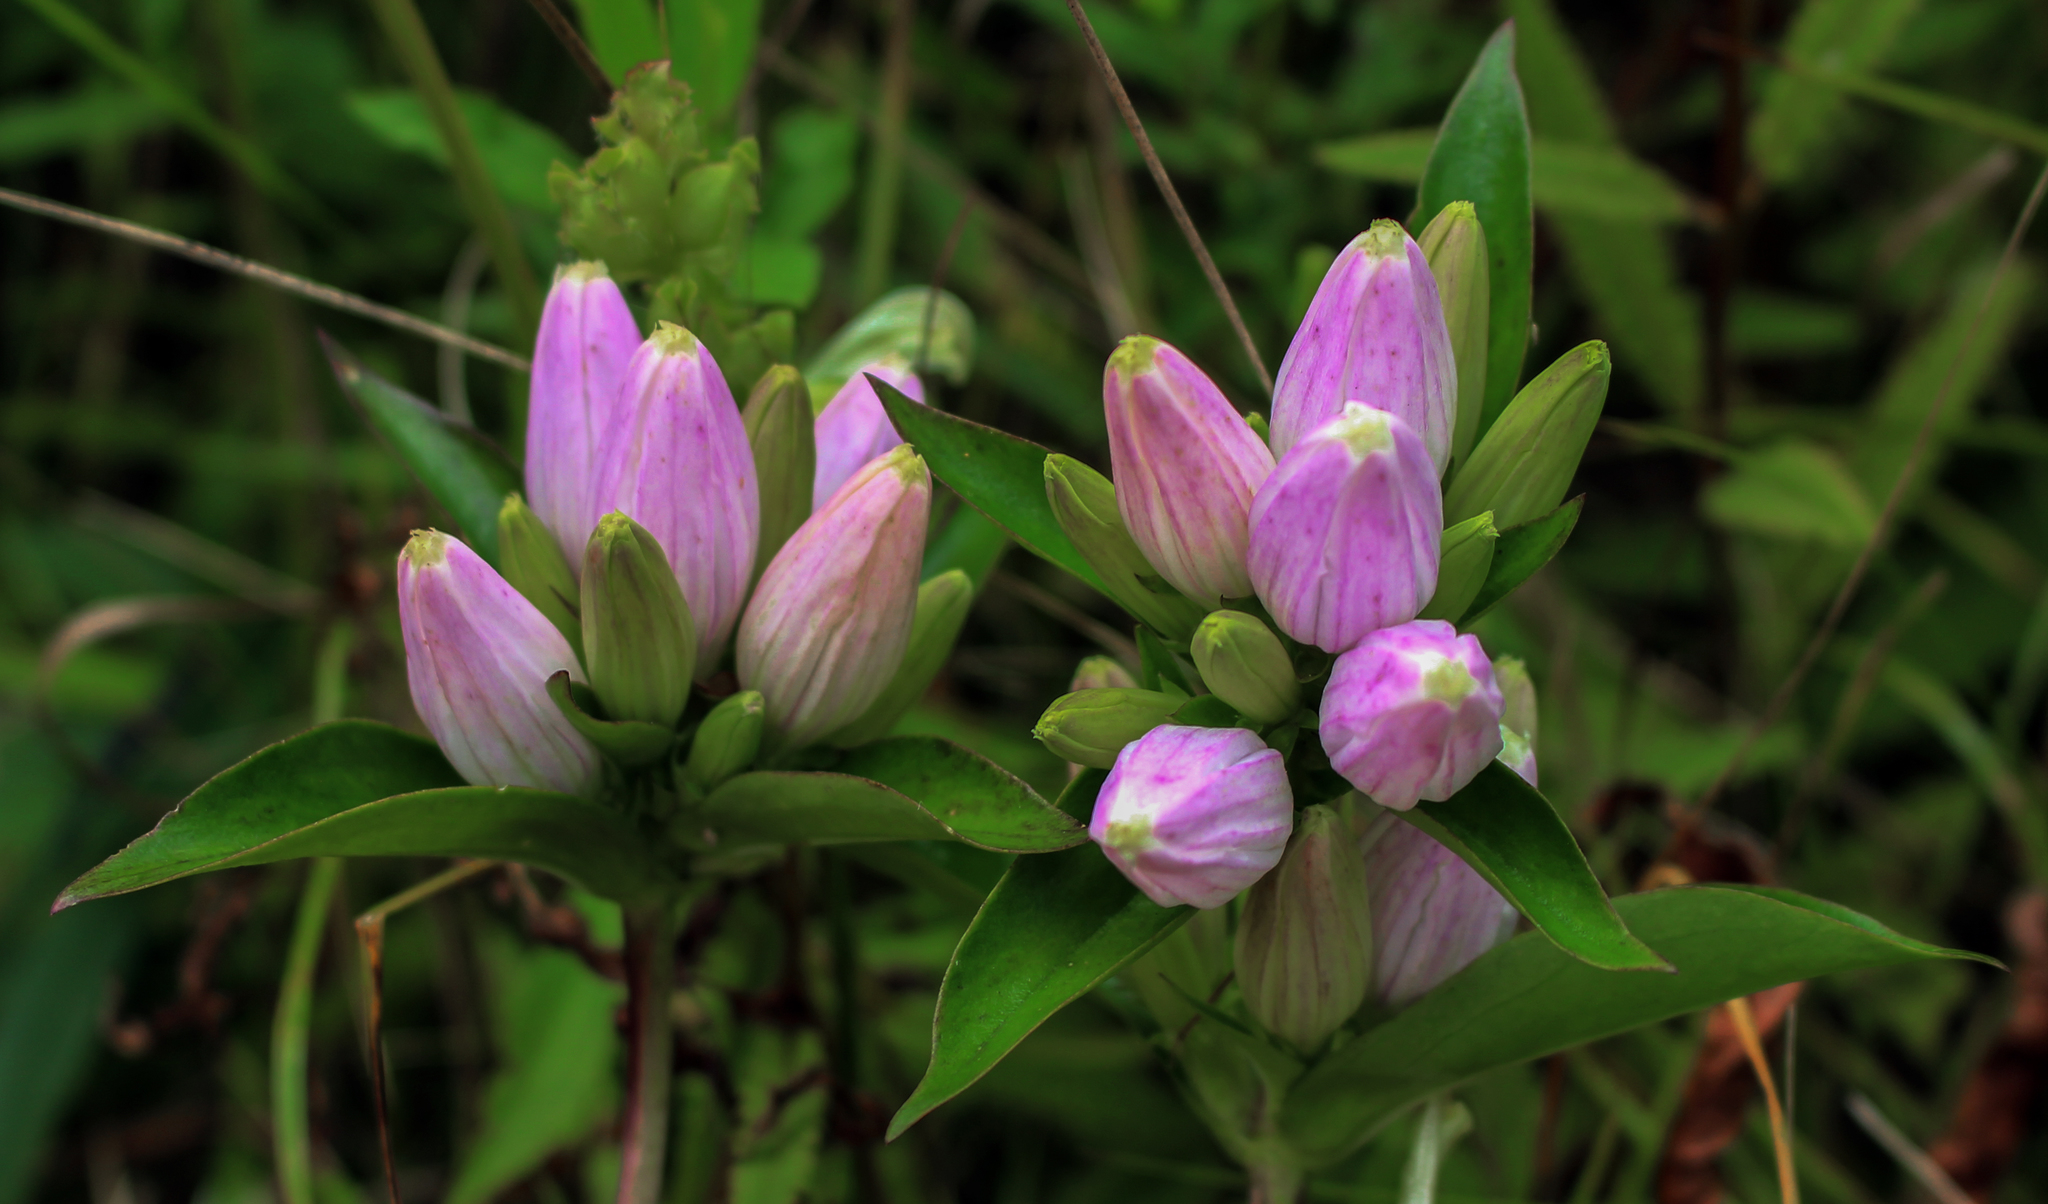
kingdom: Plantae
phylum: Tracheophyta
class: Magnoliopsida
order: Gentianales
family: Gentianaceae
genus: Gentiana
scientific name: Gentiana andrewsii
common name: Bottle gentian
